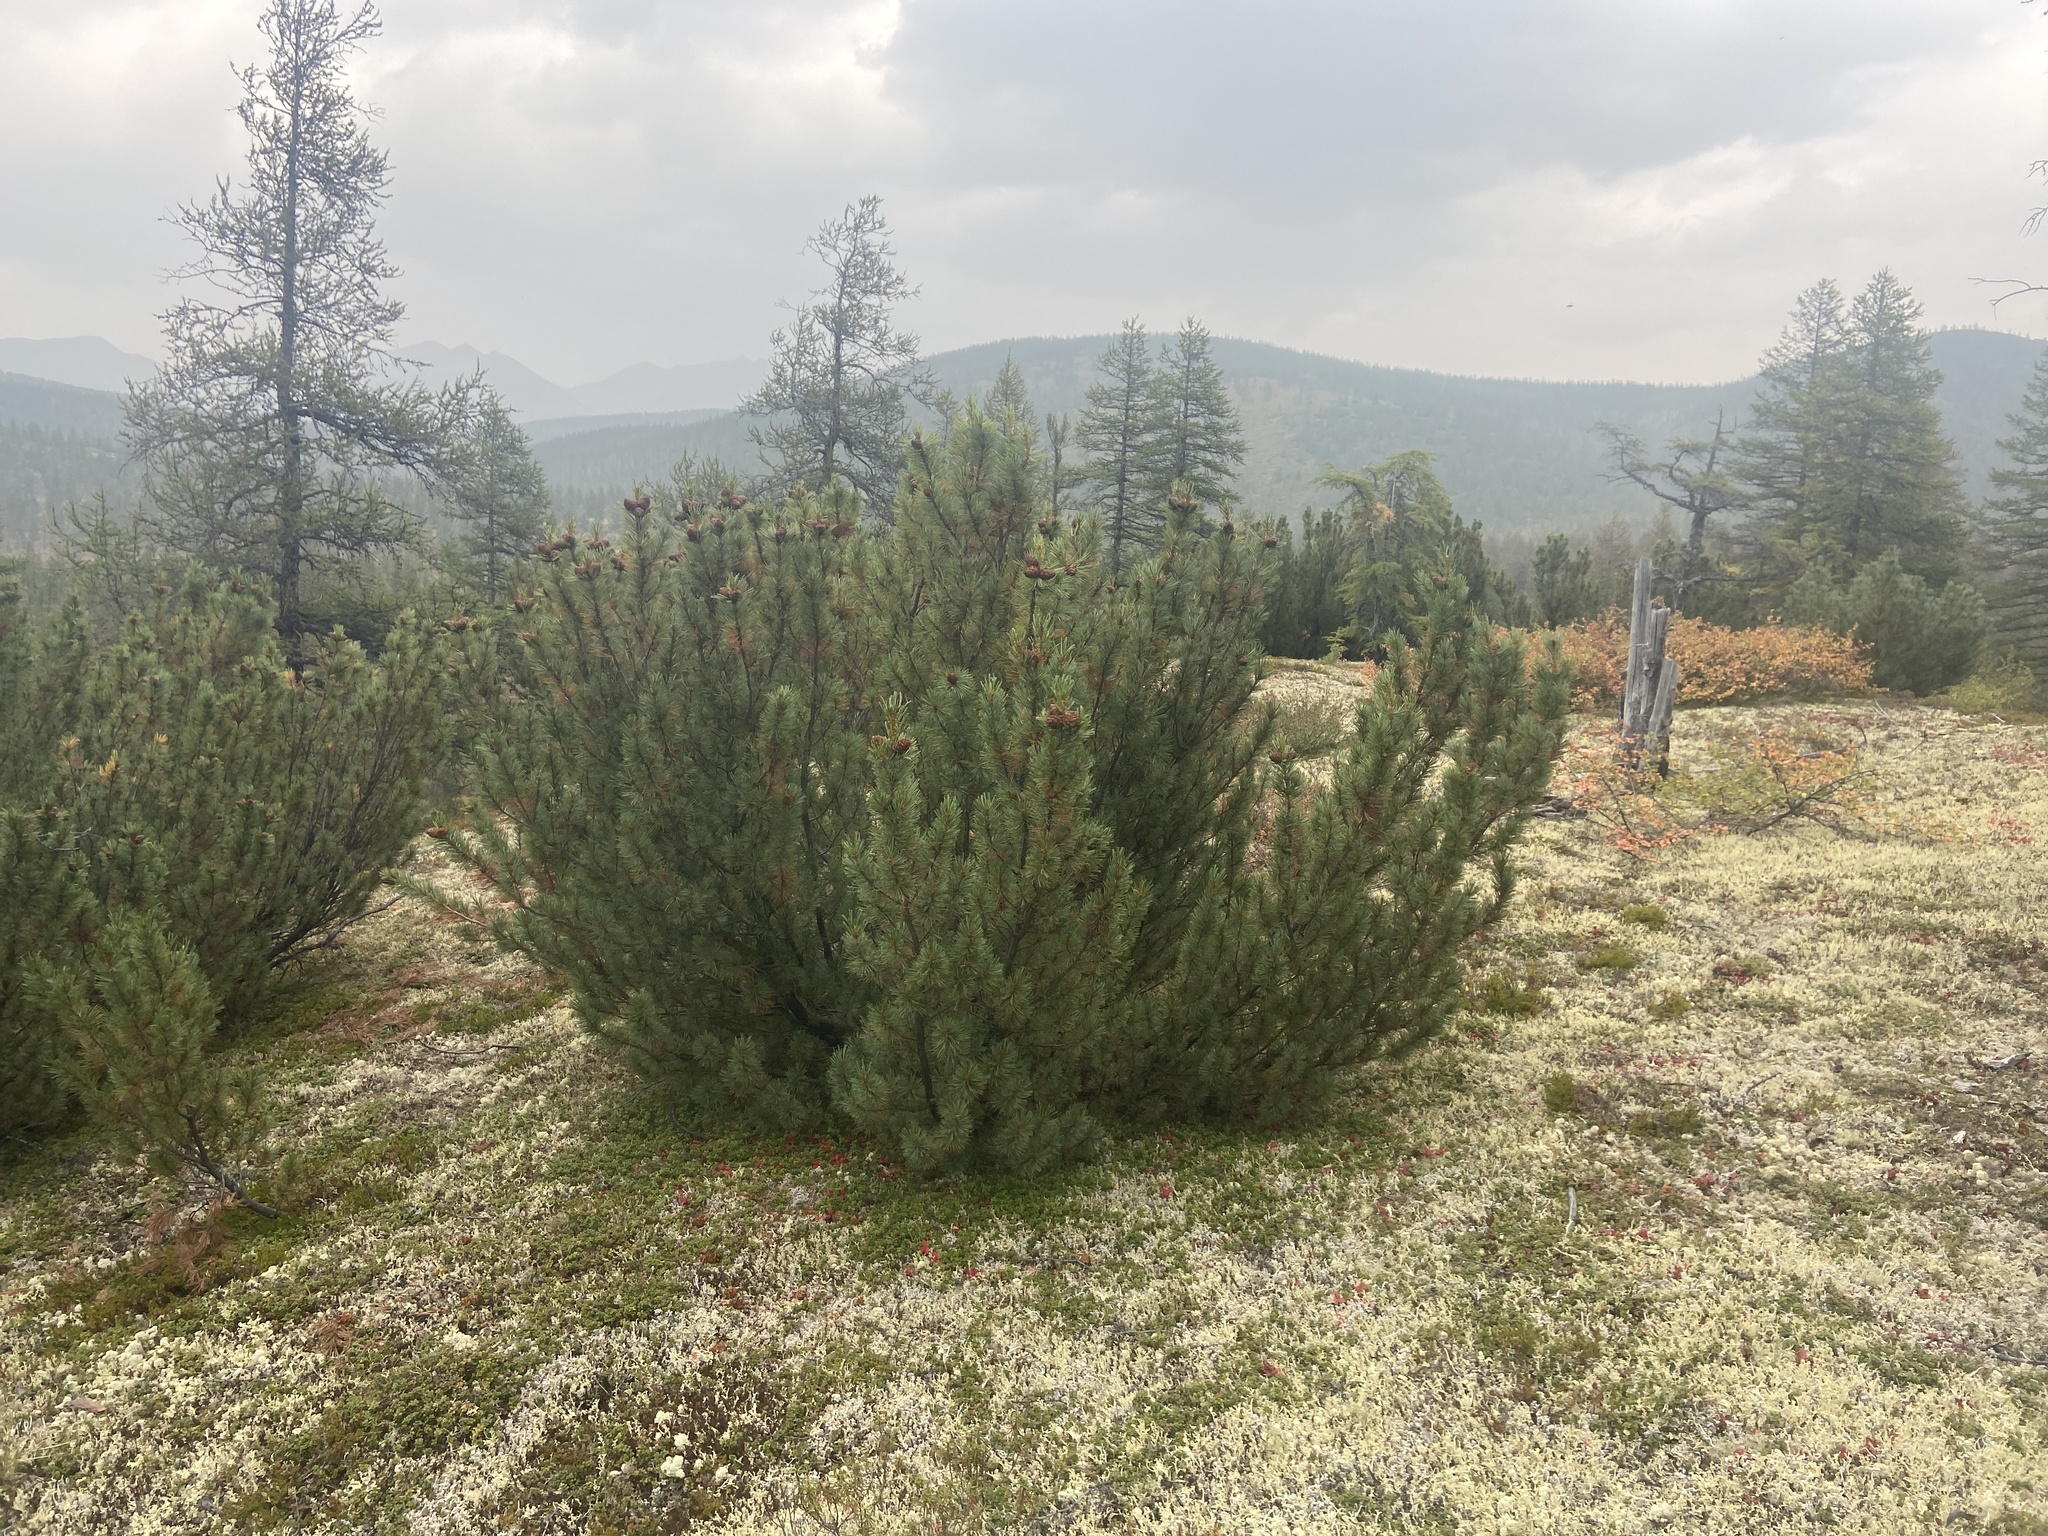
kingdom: Plantae
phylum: Tracheophyta
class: Pinopsida
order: Pinales
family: Pinaceae
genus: Pinus
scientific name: Pinus pumila
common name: Dwarf siberian pine
